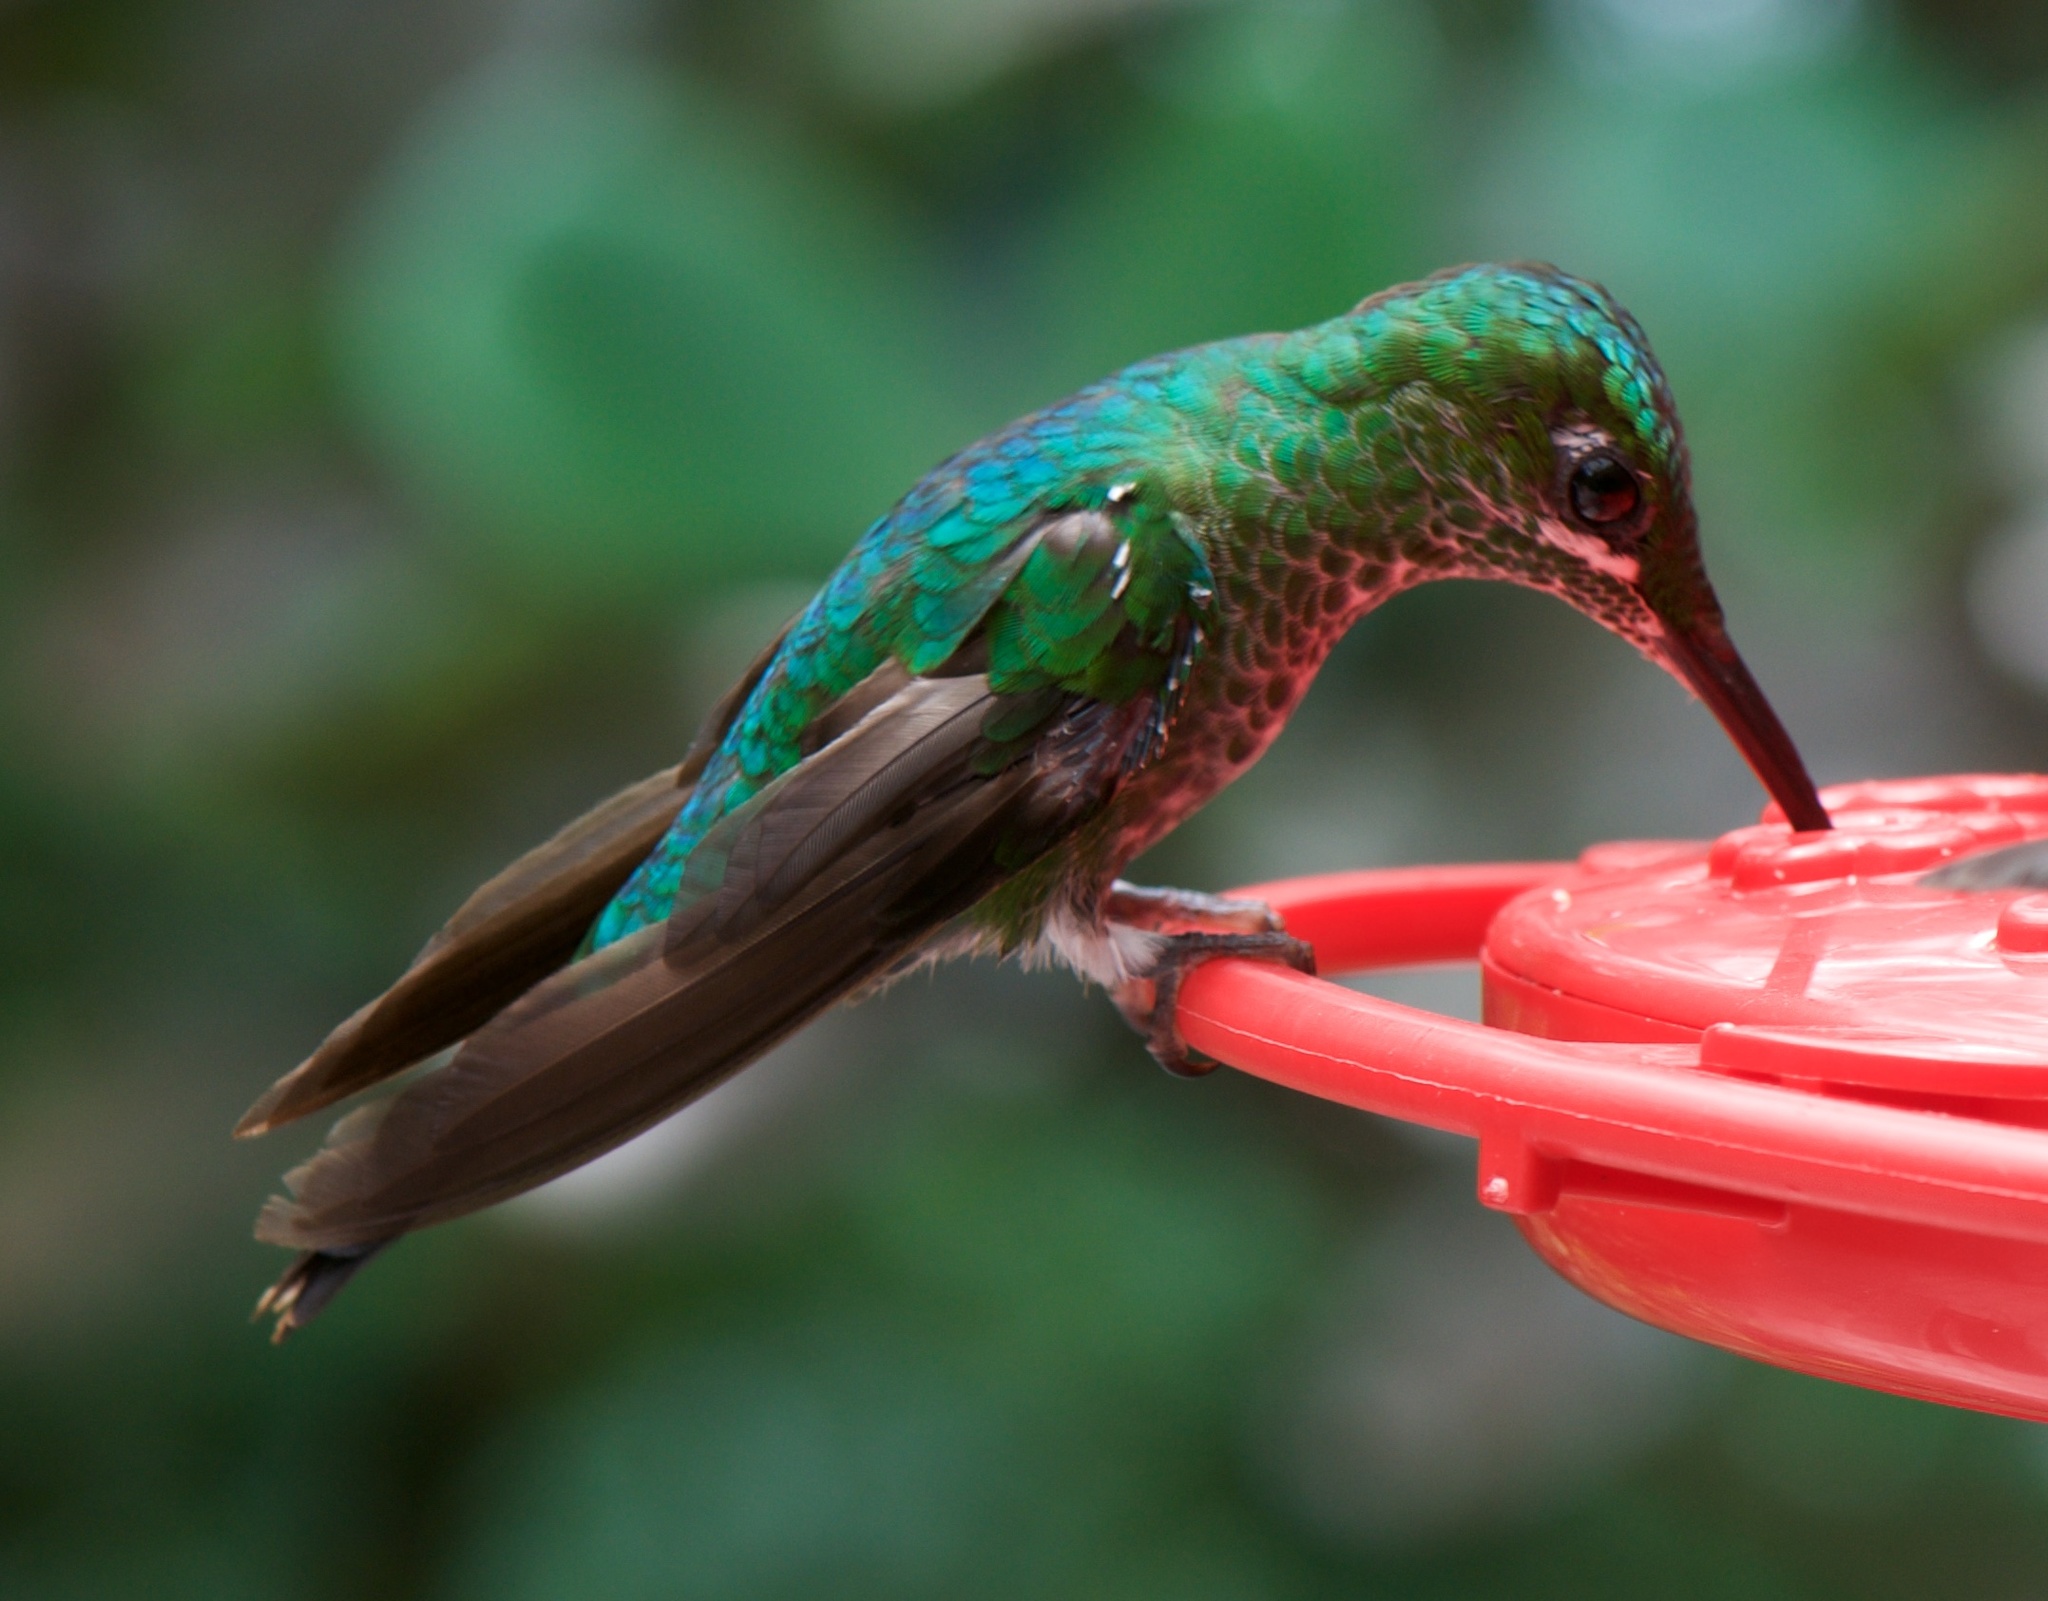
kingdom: Animalia
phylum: Chordata
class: Aves
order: Apodiformes
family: Trochilidae
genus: Heliodoxa
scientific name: Heliodoxa jacula
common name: Green-crowned brilliant
